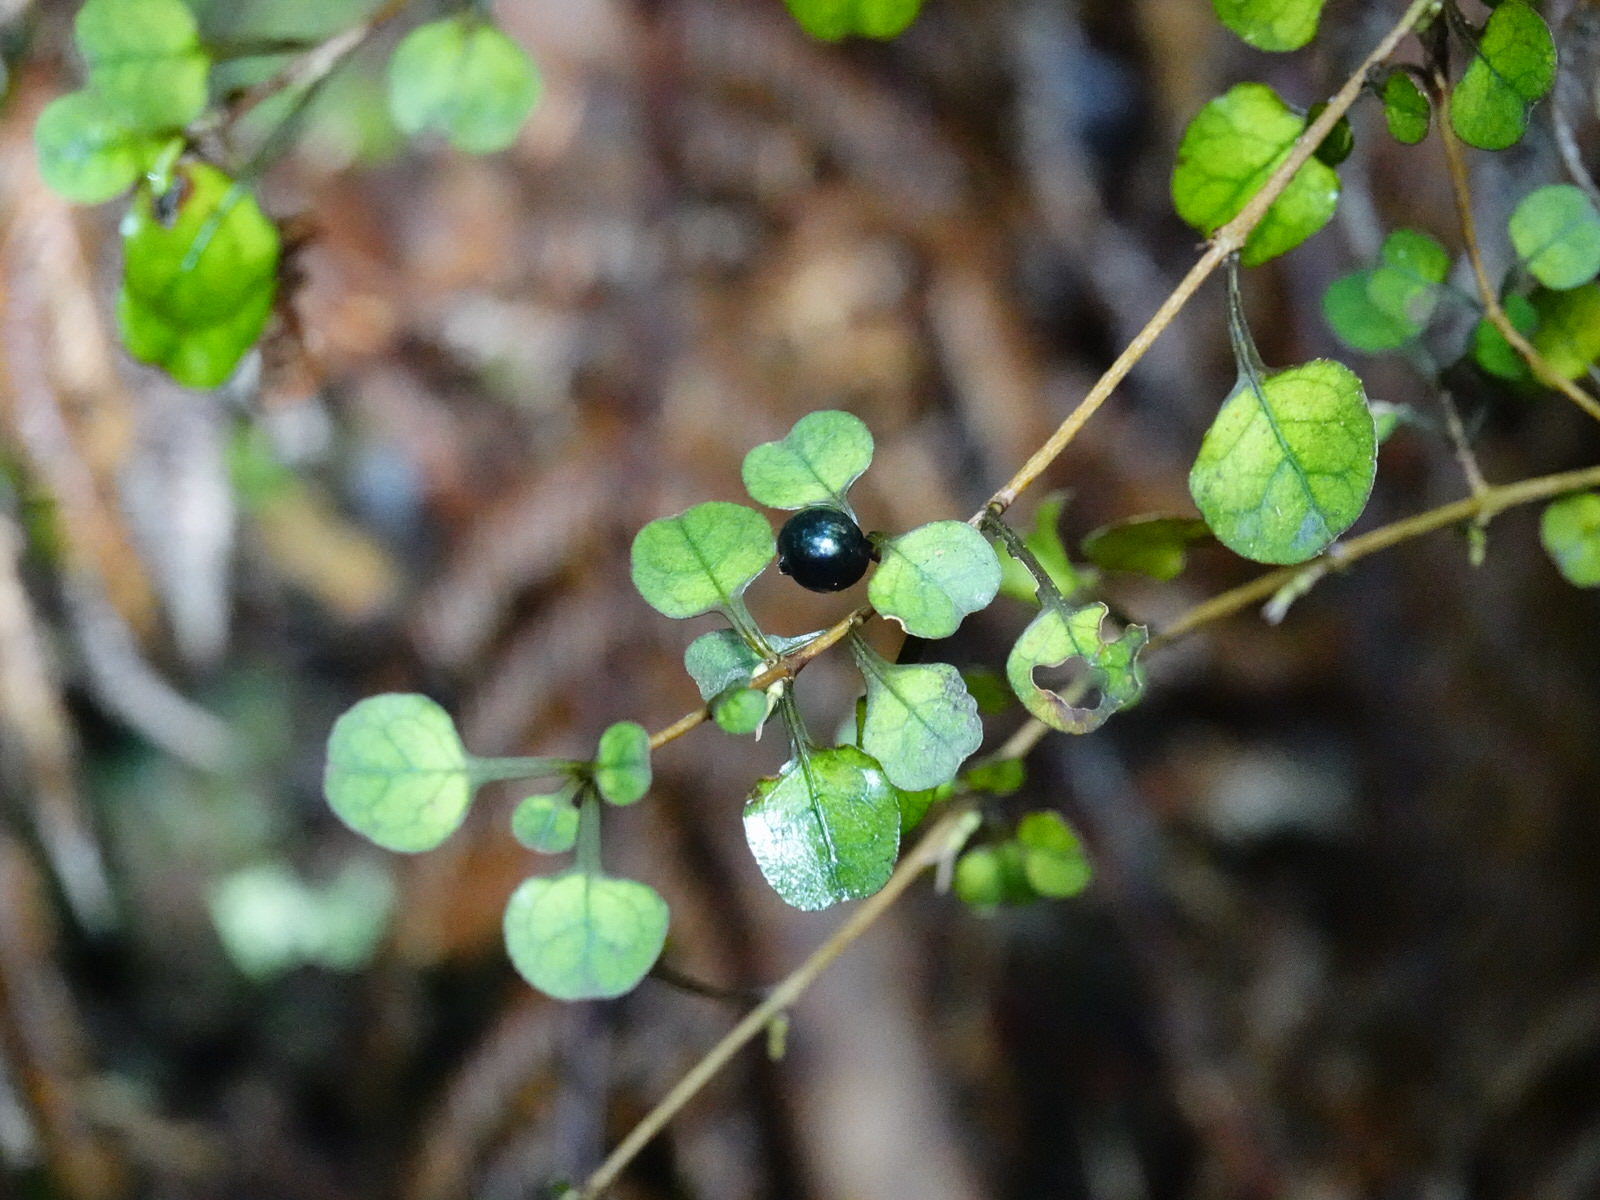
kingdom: Plantae
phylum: Tracheophyta
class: Magnoliopsida
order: Gentianales
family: Rubiaceae
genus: Coprosma
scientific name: Coprosma spathulata
